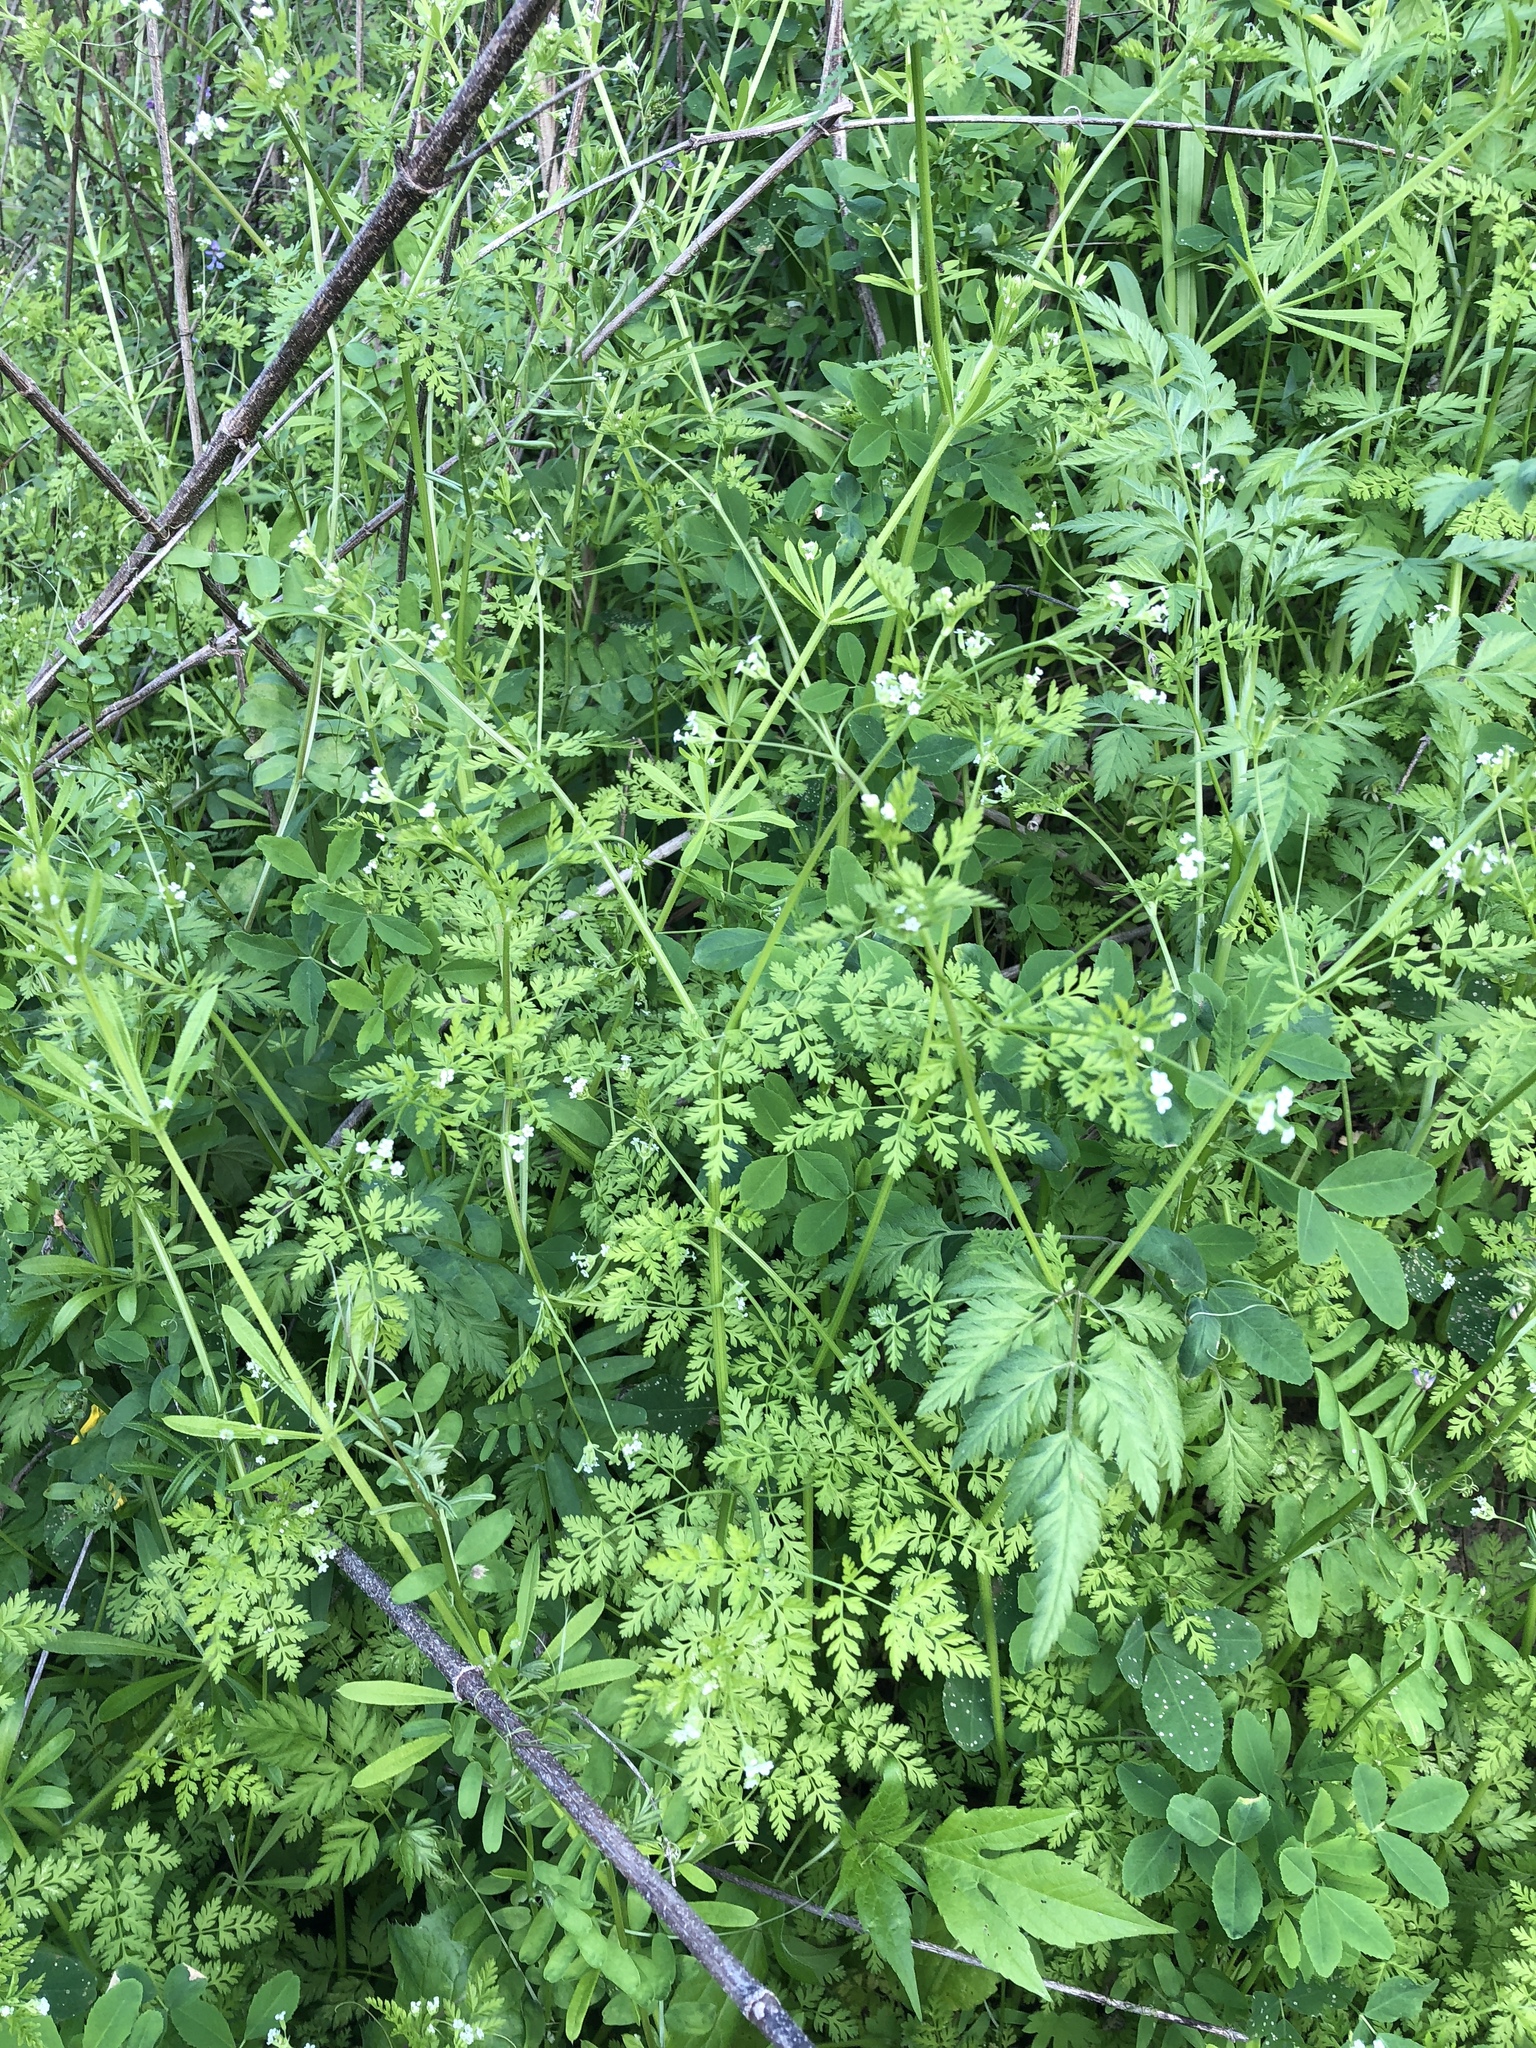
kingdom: Plantae
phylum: Tracheophyta
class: Magnoliopsida
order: Apiales
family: Apiaceae
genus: Chaerophyllum
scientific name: Chaerophyllum tainturieri
